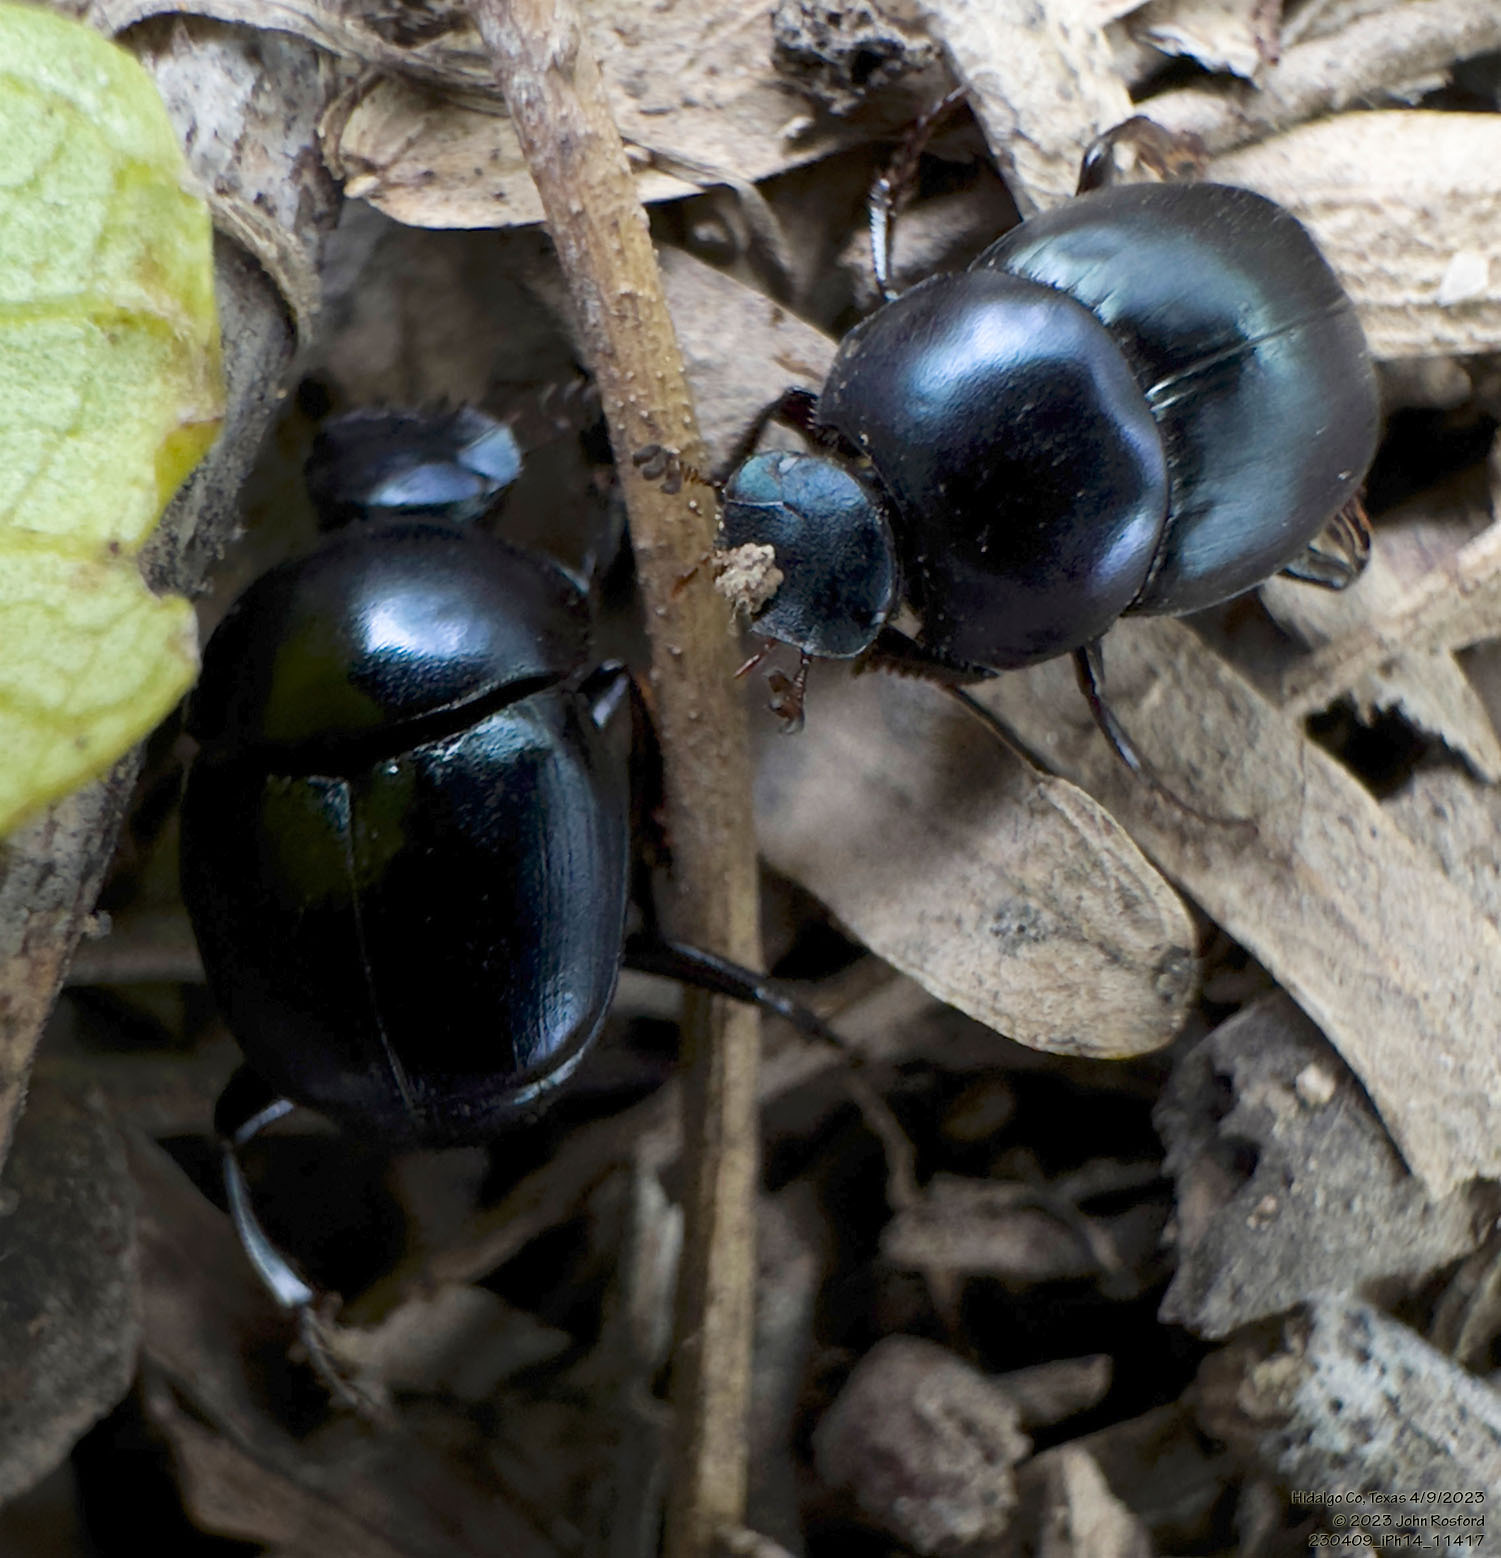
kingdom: Animalia
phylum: Arthropoda
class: Insecta
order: Coleoptera
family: Scarabaeidae
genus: Canthon
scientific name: Canthon cyanellus
